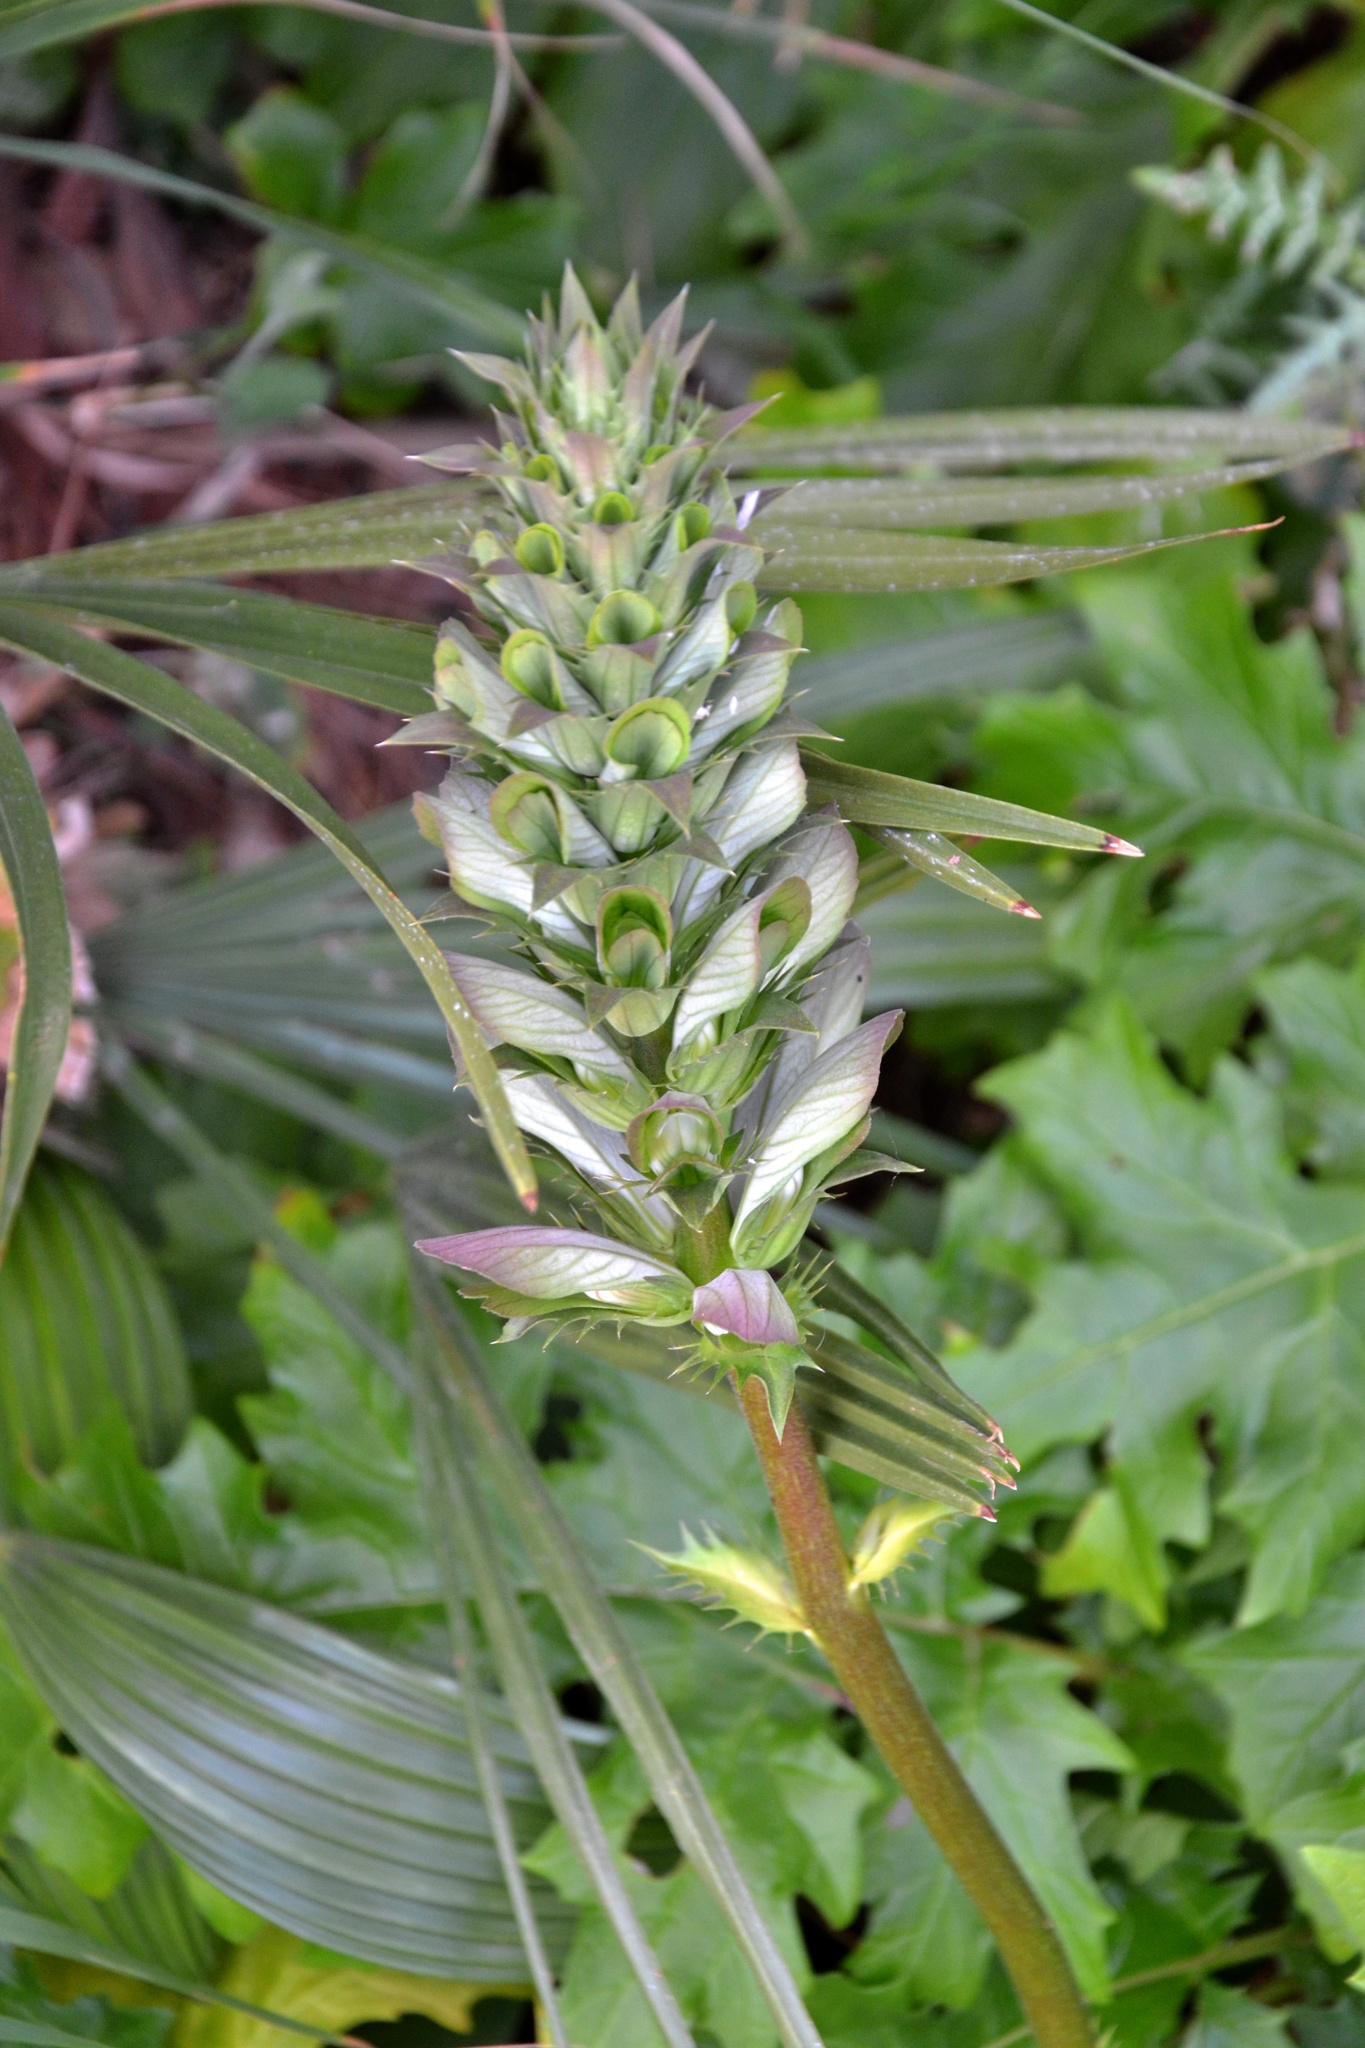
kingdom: Plantae
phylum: Tracheophyta
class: Magnoliopsida
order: Lamiales
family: Acanthaceae
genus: Acanthus
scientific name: Acanthus mollis
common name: Bear's-breech
